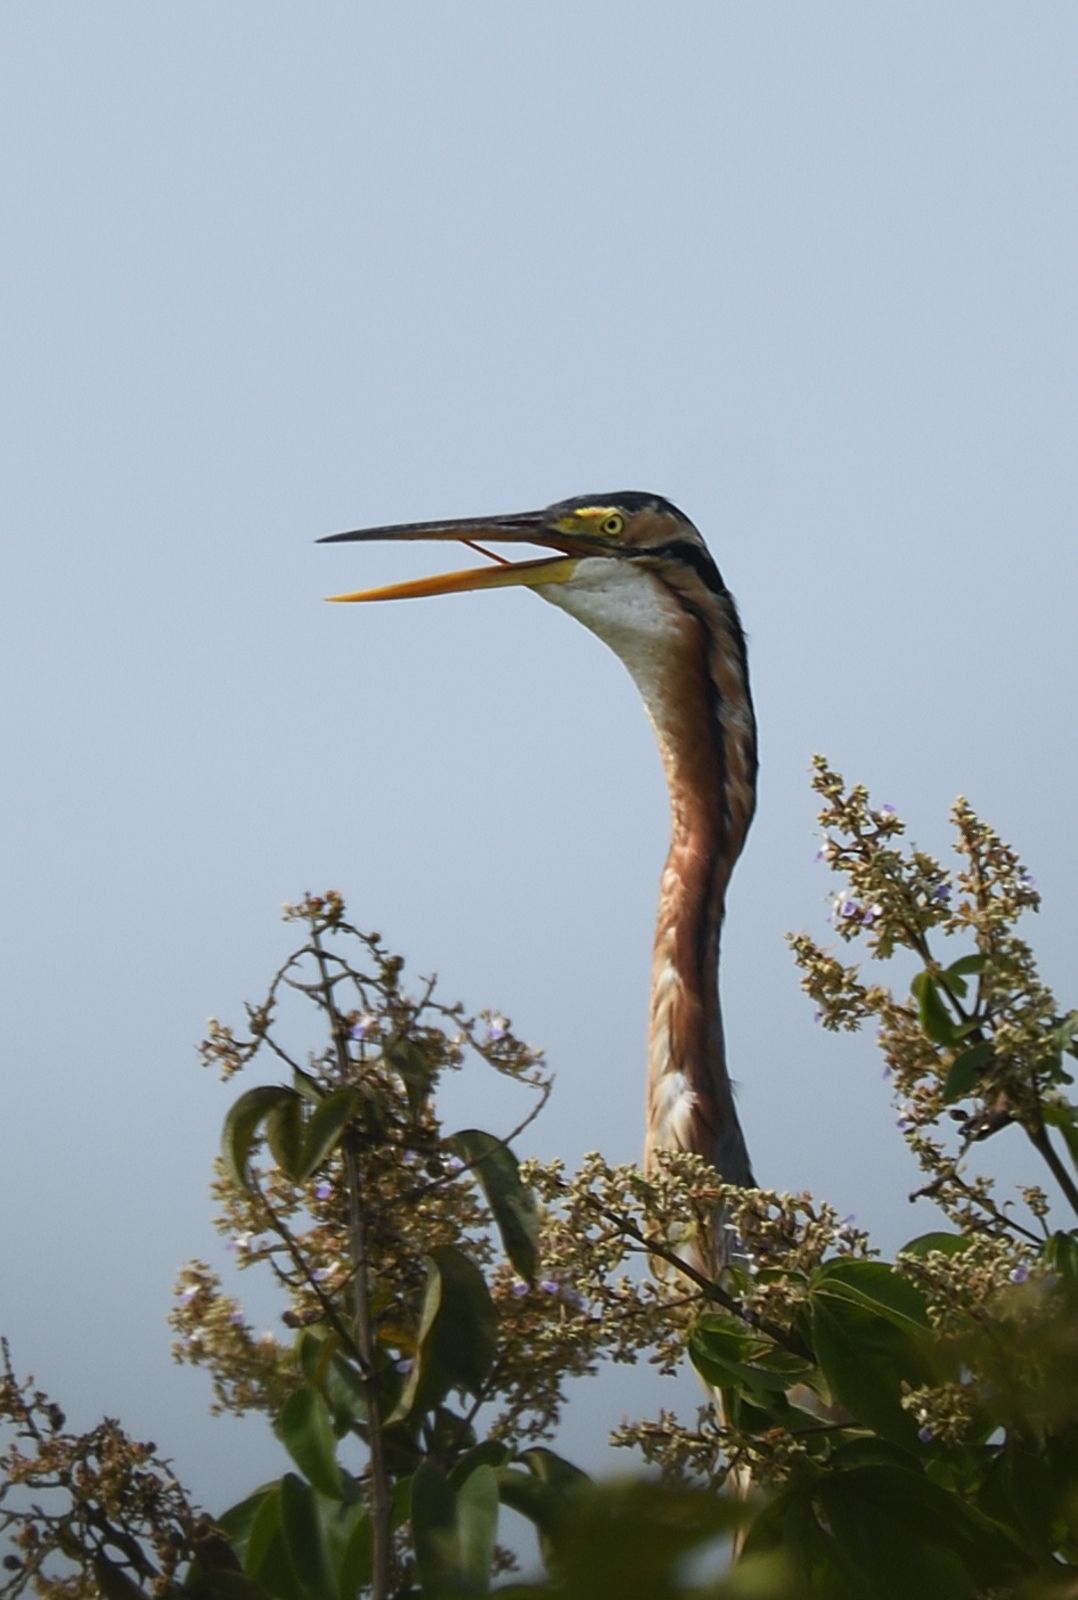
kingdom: Animalia
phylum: Chordata
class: Aves
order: Pelecaniformes
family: Ardeidae
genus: Ardea
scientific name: Ardea purpurea
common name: Purple heron
